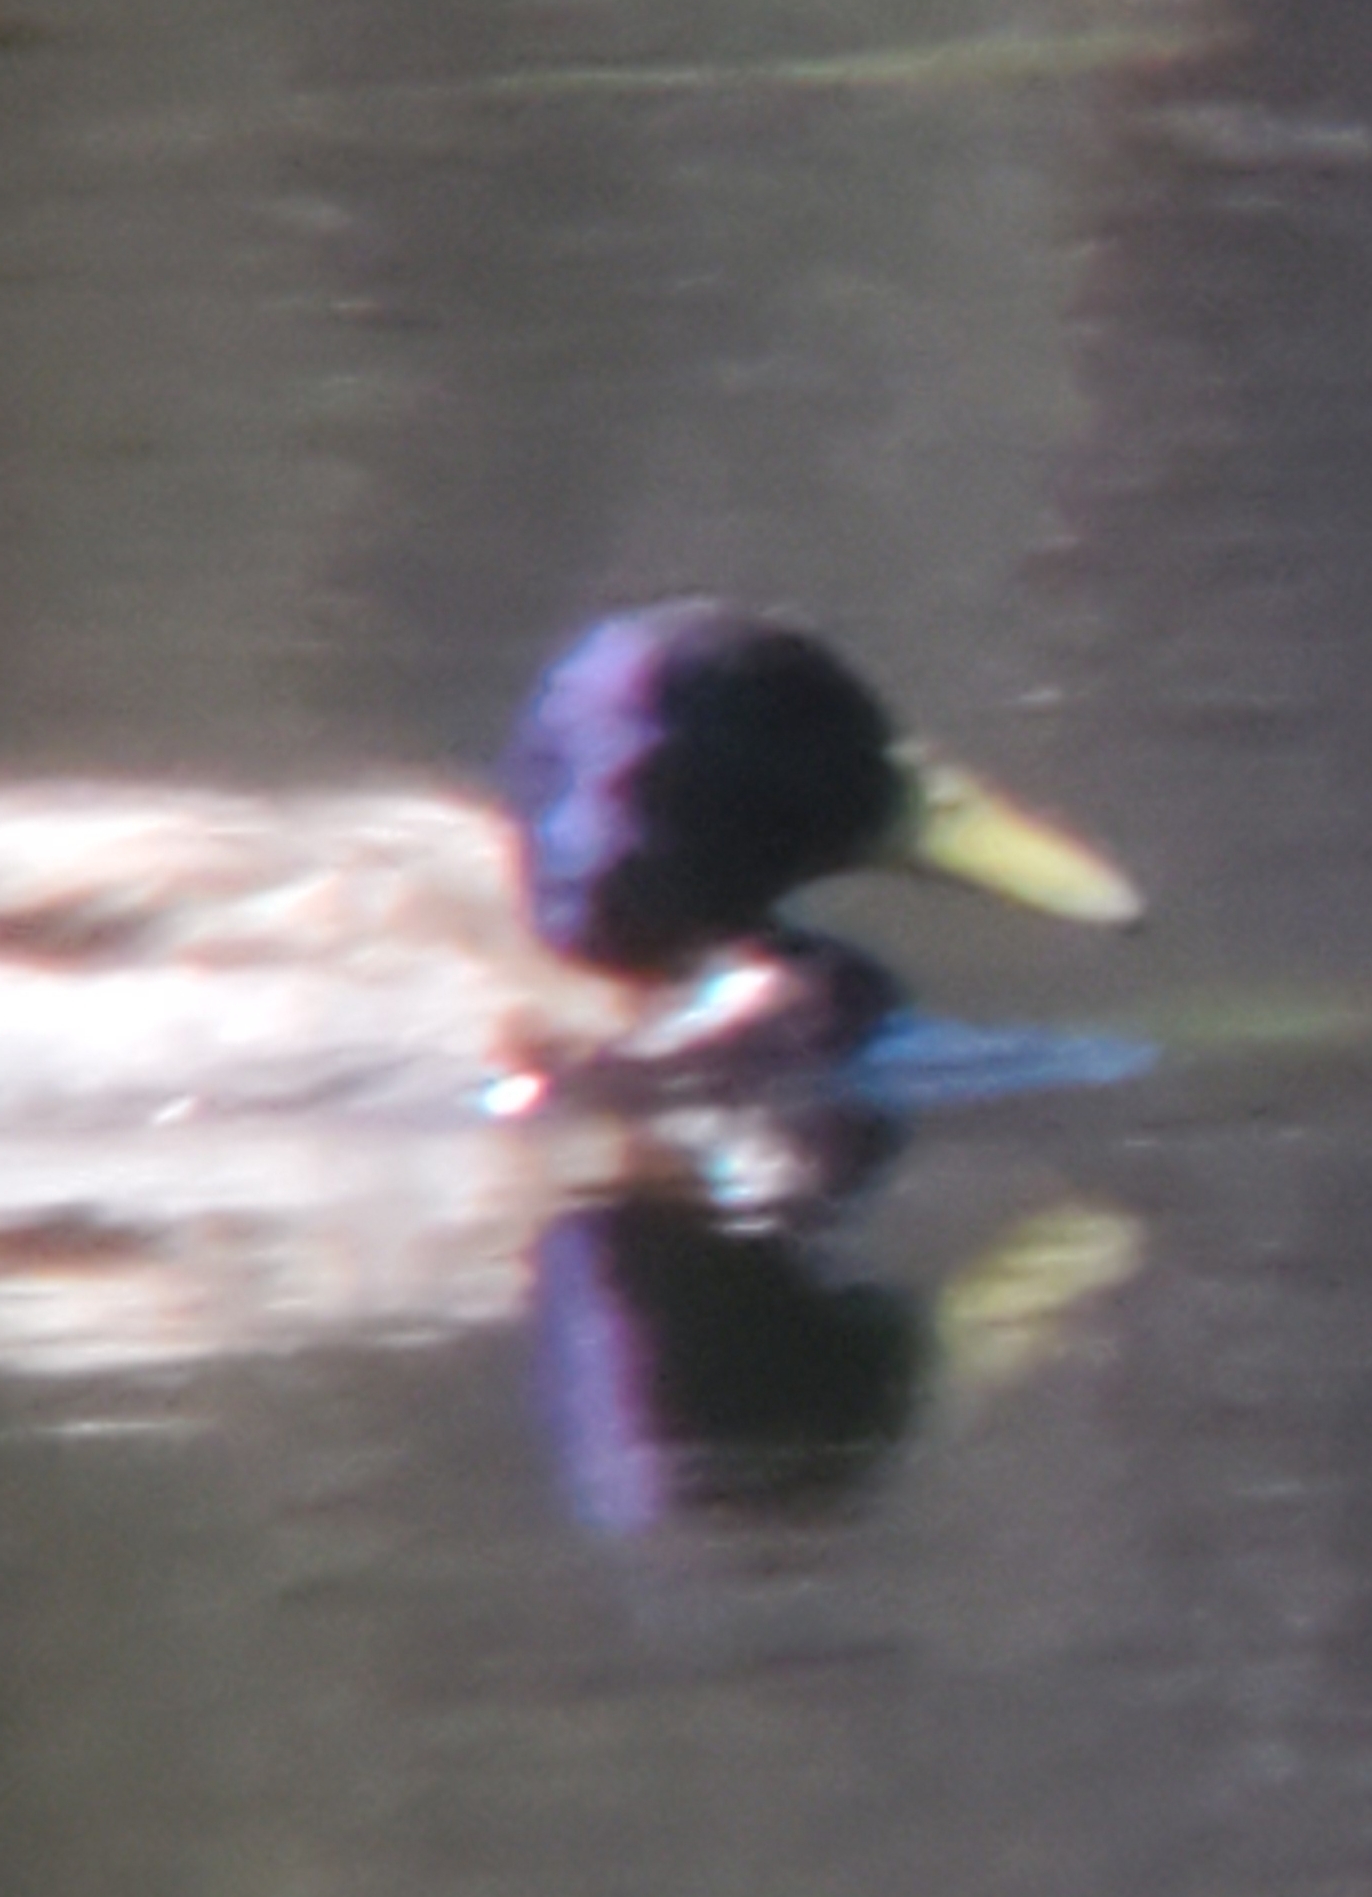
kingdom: Animalia
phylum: Chordata
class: Aves
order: Anseriformes
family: Anatidae
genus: Anas
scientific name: Anas platyrhynchos
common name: Mallard
